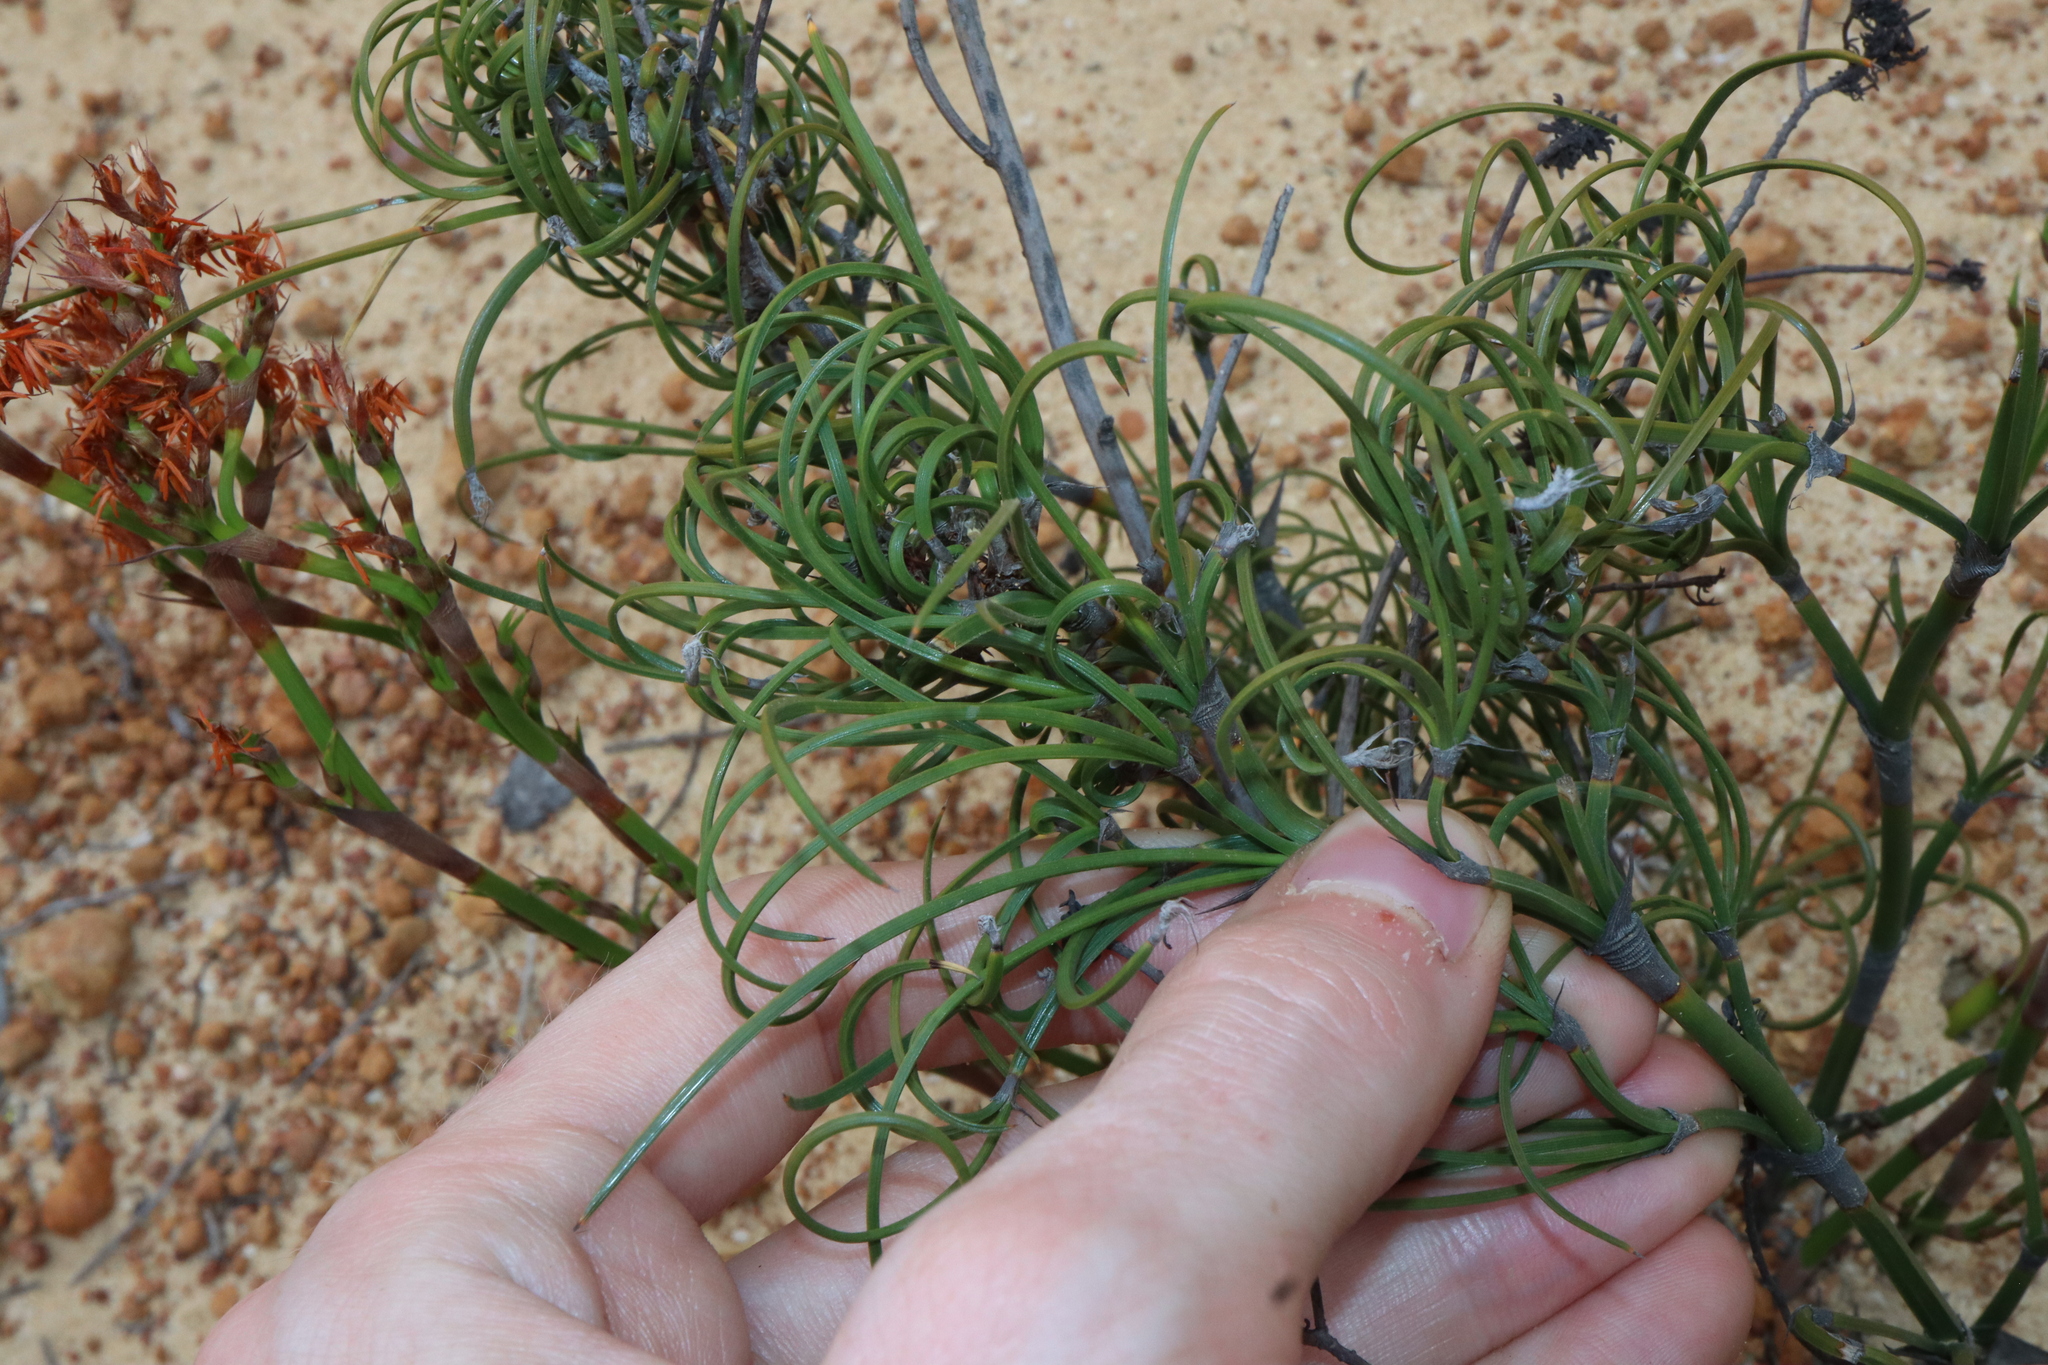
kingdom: Plantae
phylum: Tracheophyta
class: Liliopsida
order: Poales
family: Cyperaceae
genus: Caustis
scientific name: Caustis dioica
